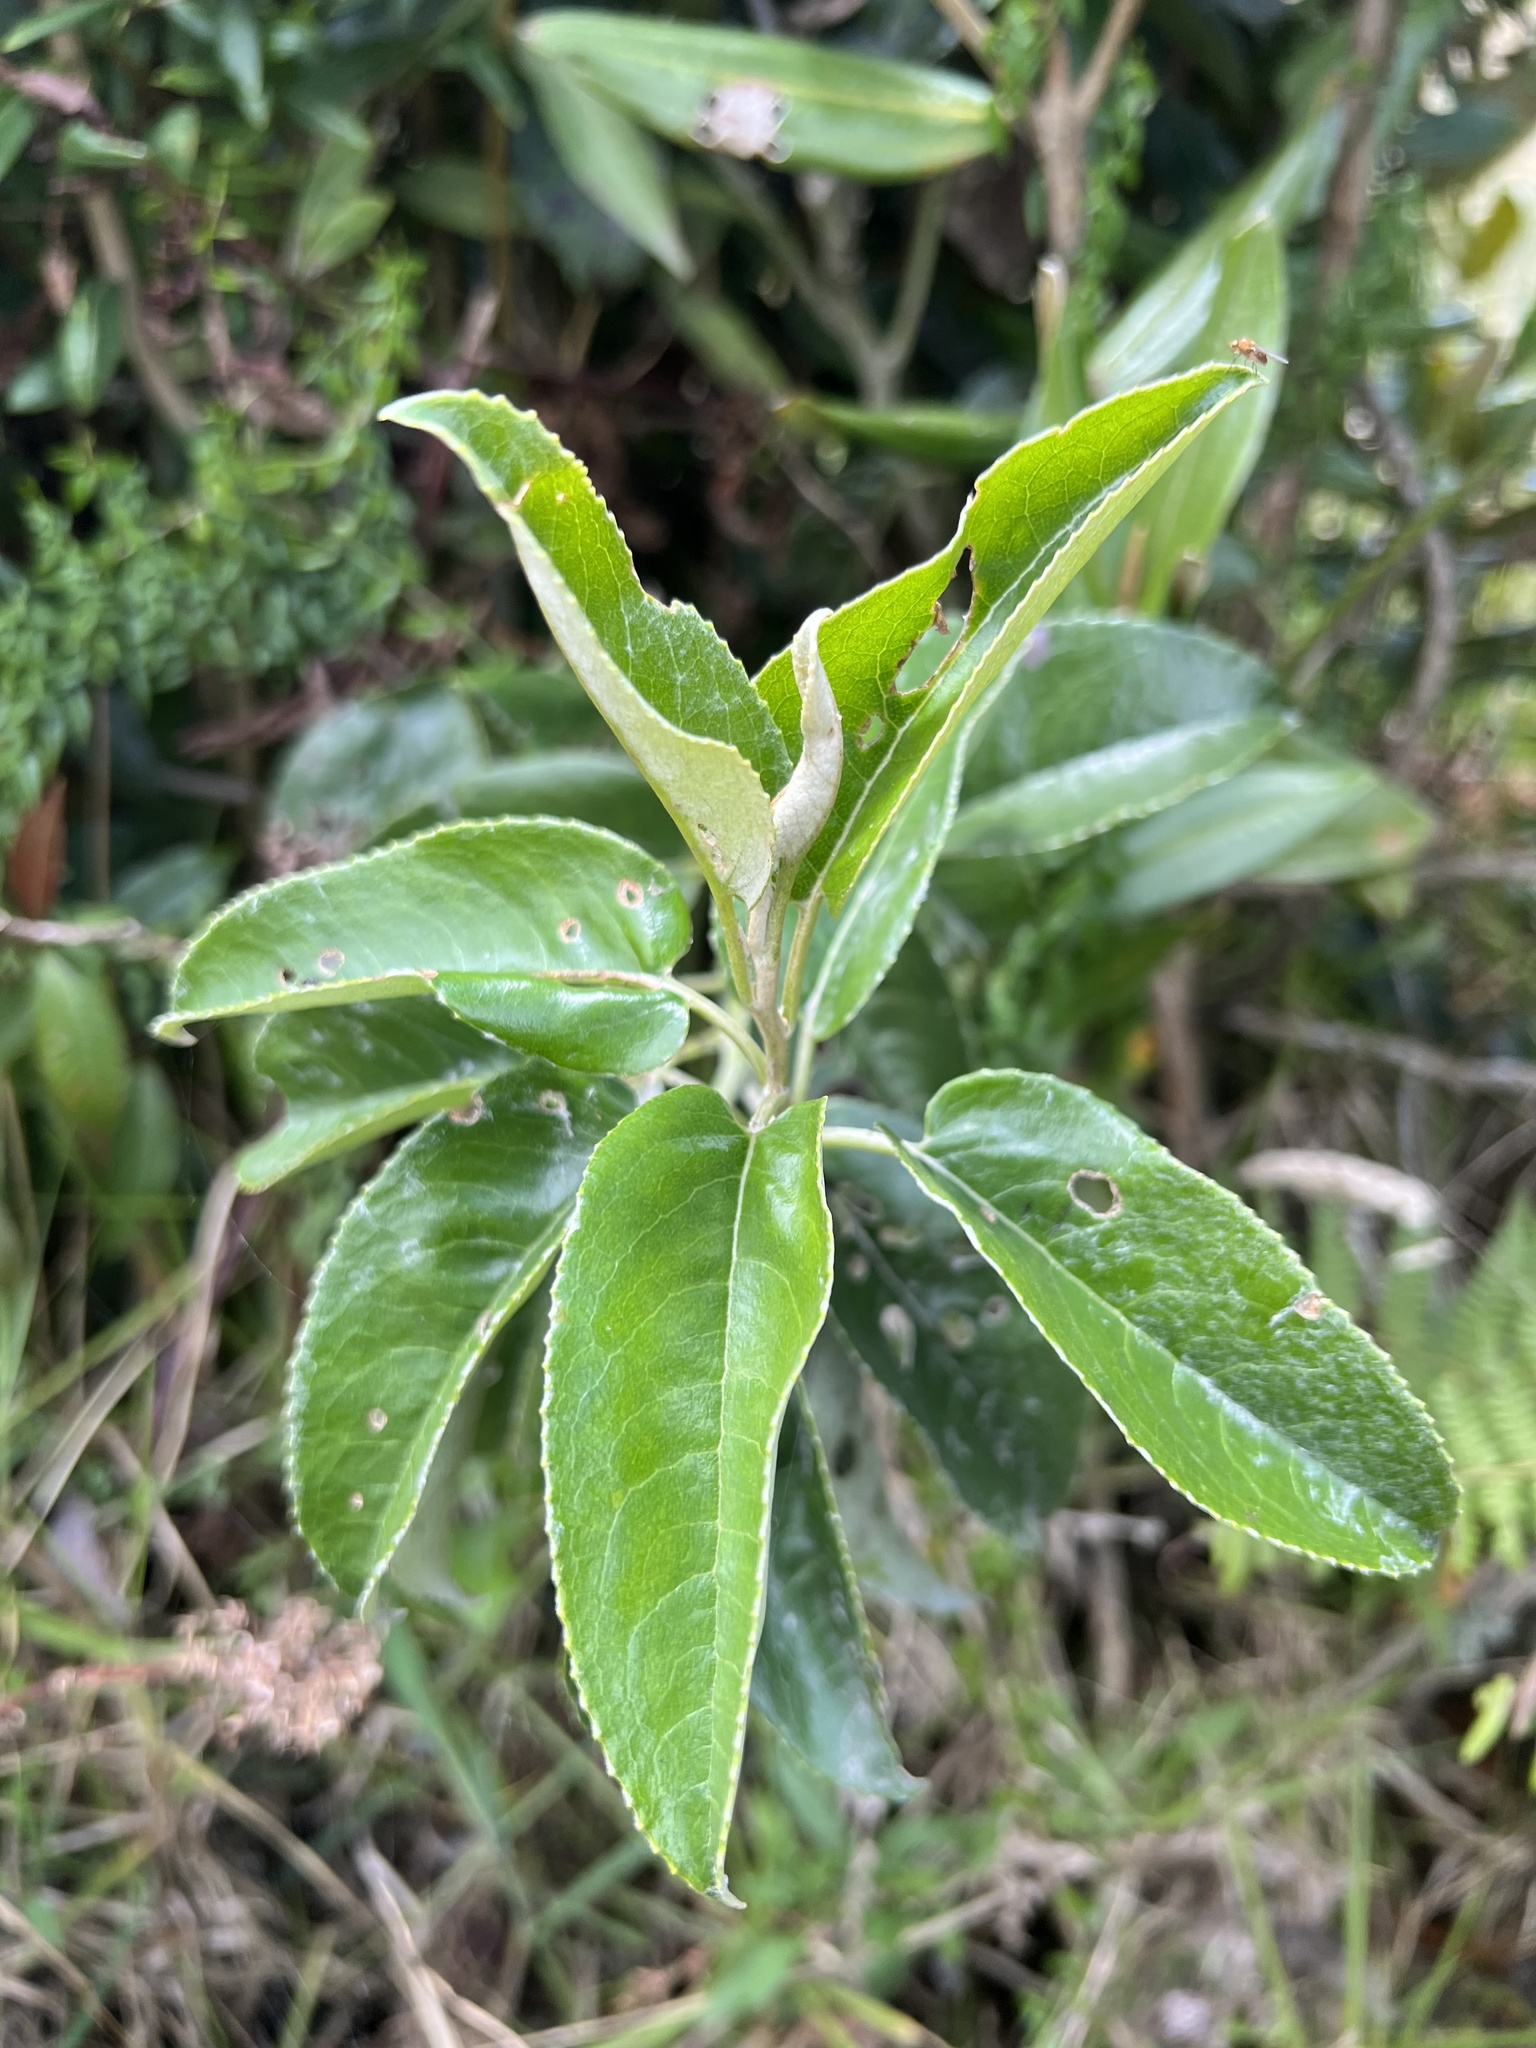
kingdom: Plantae
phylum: Tracheophyta
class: Magnoliopsida
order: Asterales
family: Asteraceae
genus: Dendrophorbium
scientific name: Dendrophorbium americanum
